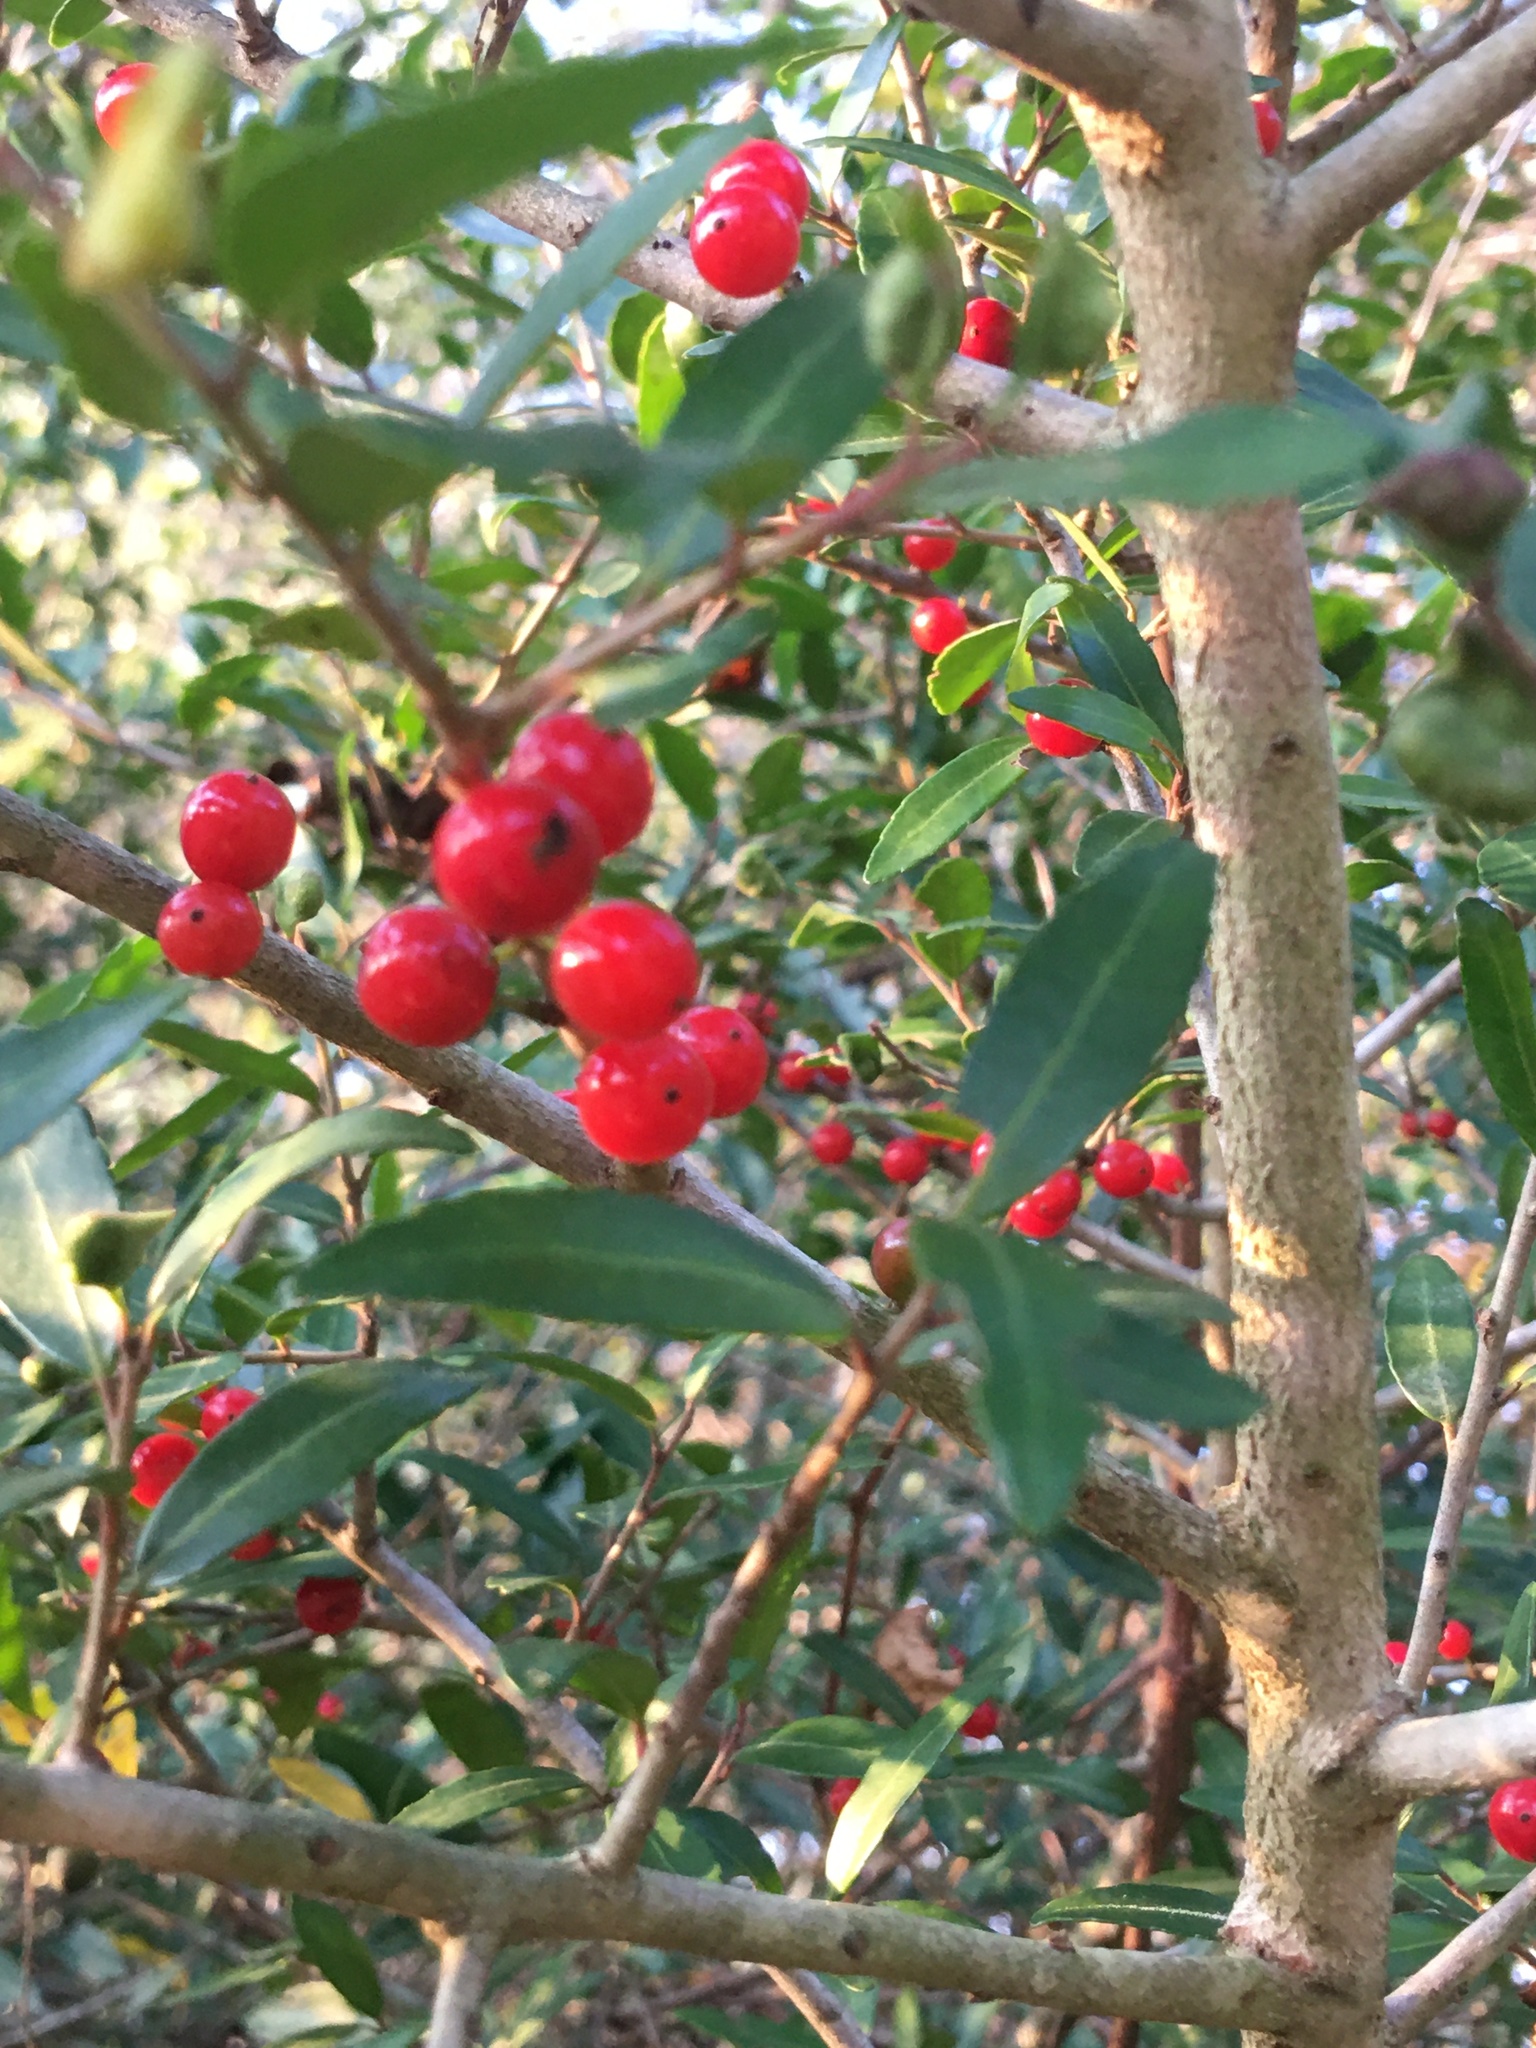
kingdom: Plantae
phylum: Tracheophyta
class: Magnoliopsida
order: Aquifoliales
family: Aquifoliaceae
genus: Ilex
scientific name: Ilex vomitoria
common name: Yaupon holly
